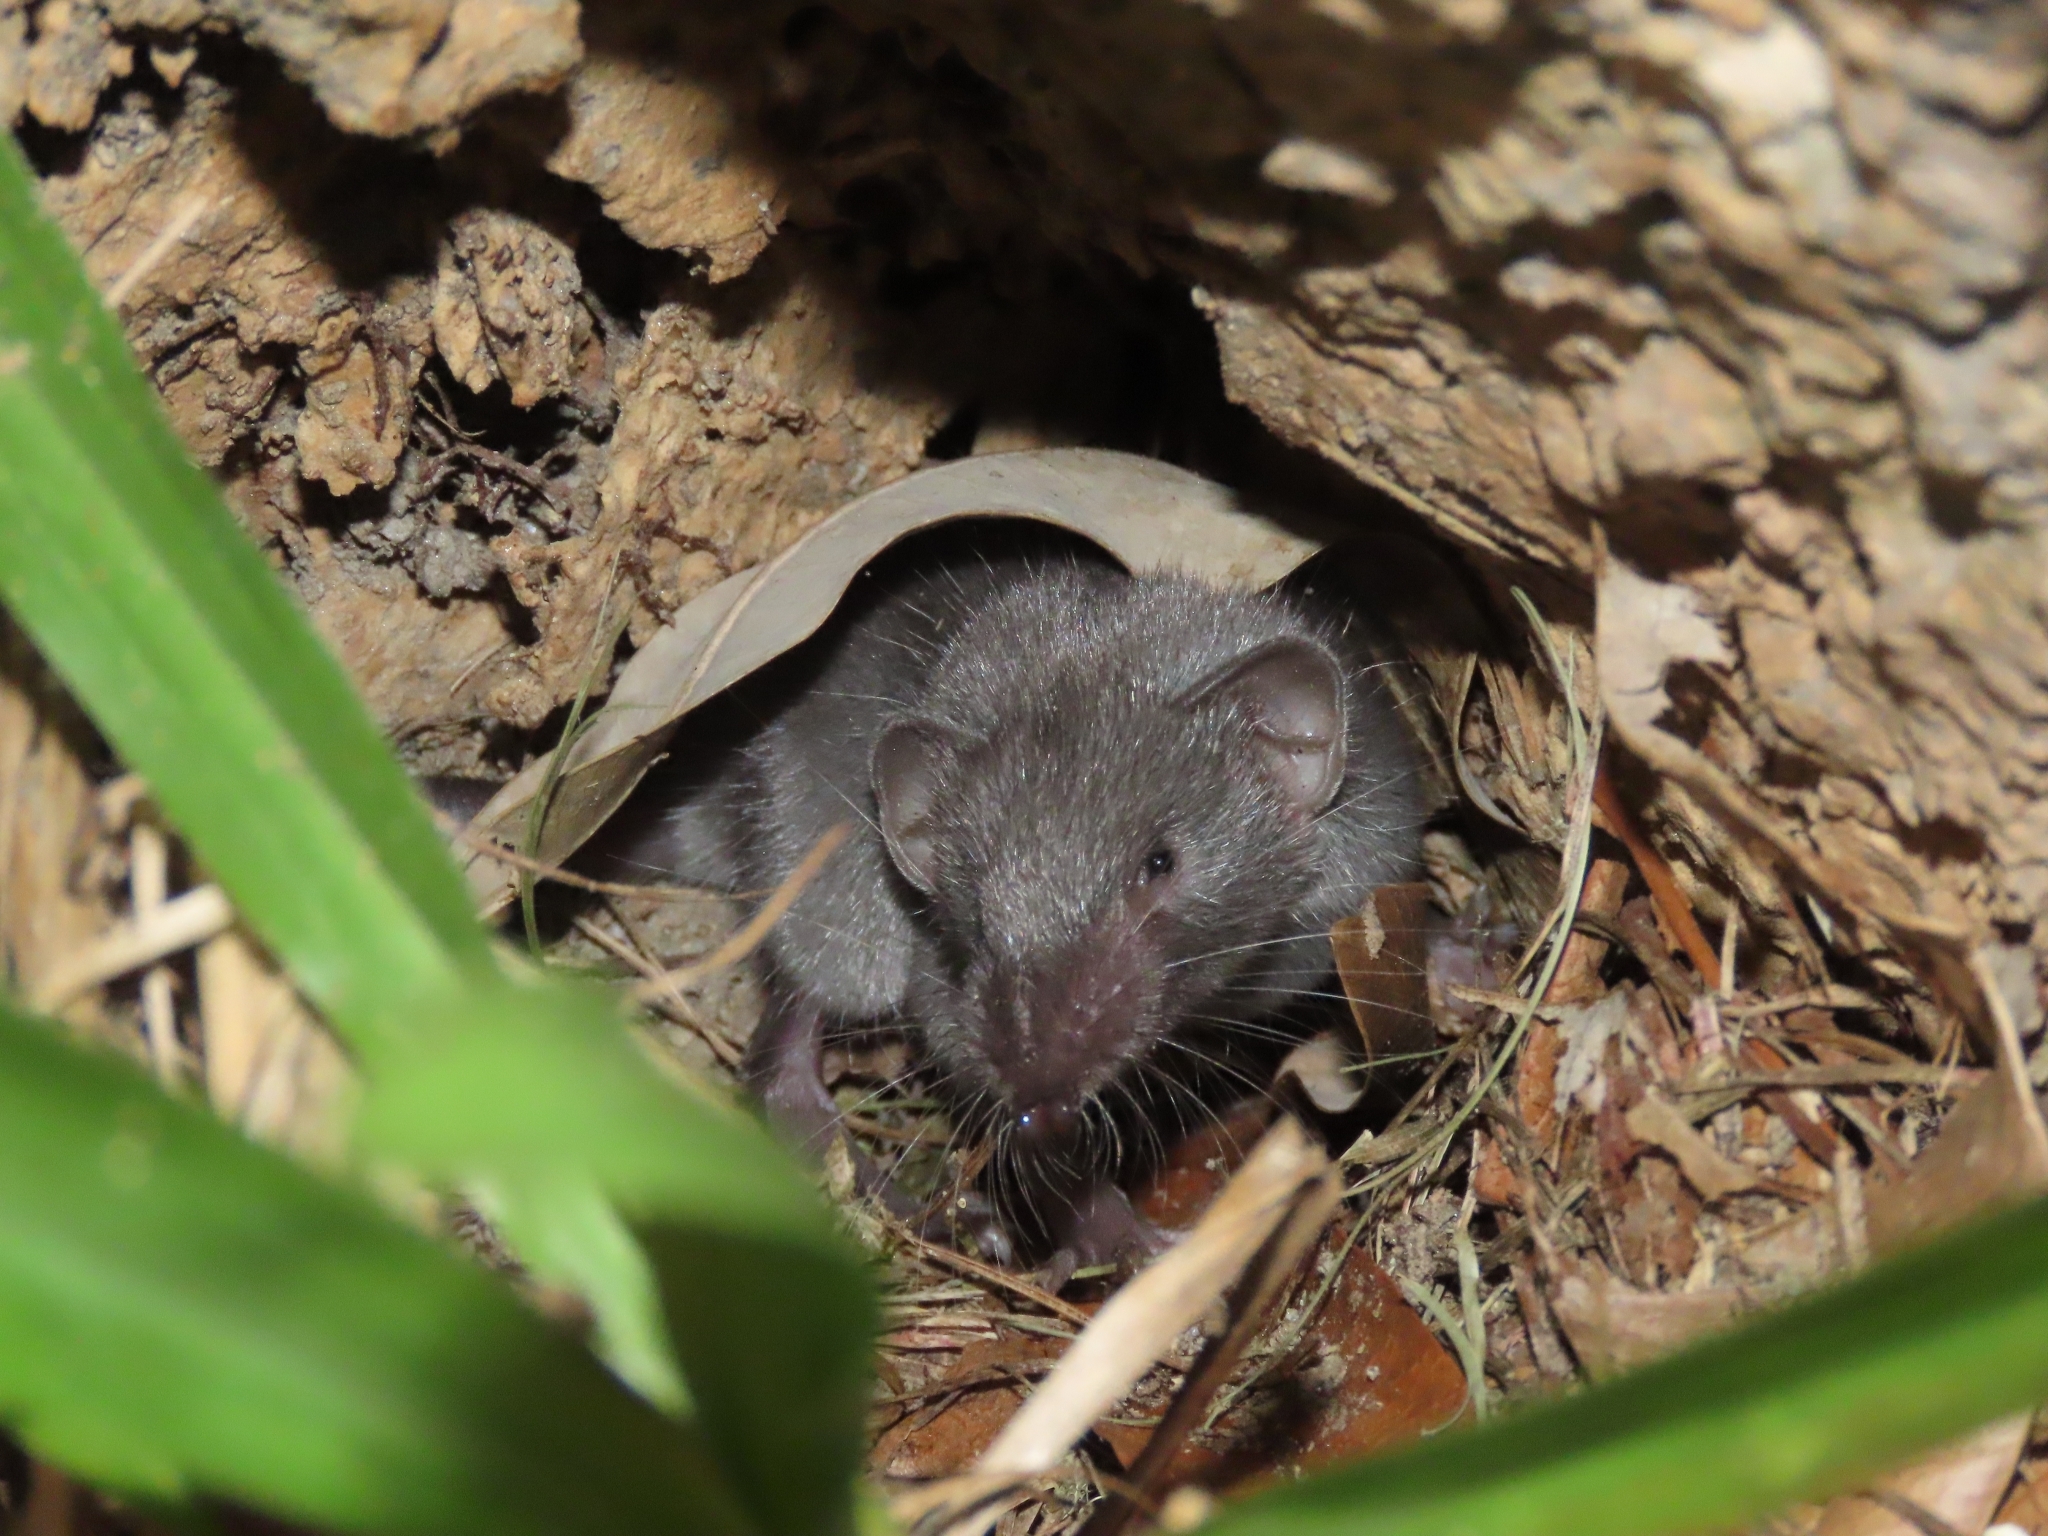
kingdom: Animalia
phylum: Chordata
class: Mammalia
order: Soricomorpha
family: Soricidae
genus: Suncus
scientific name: Suncus murinus
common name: Asian house shrew
